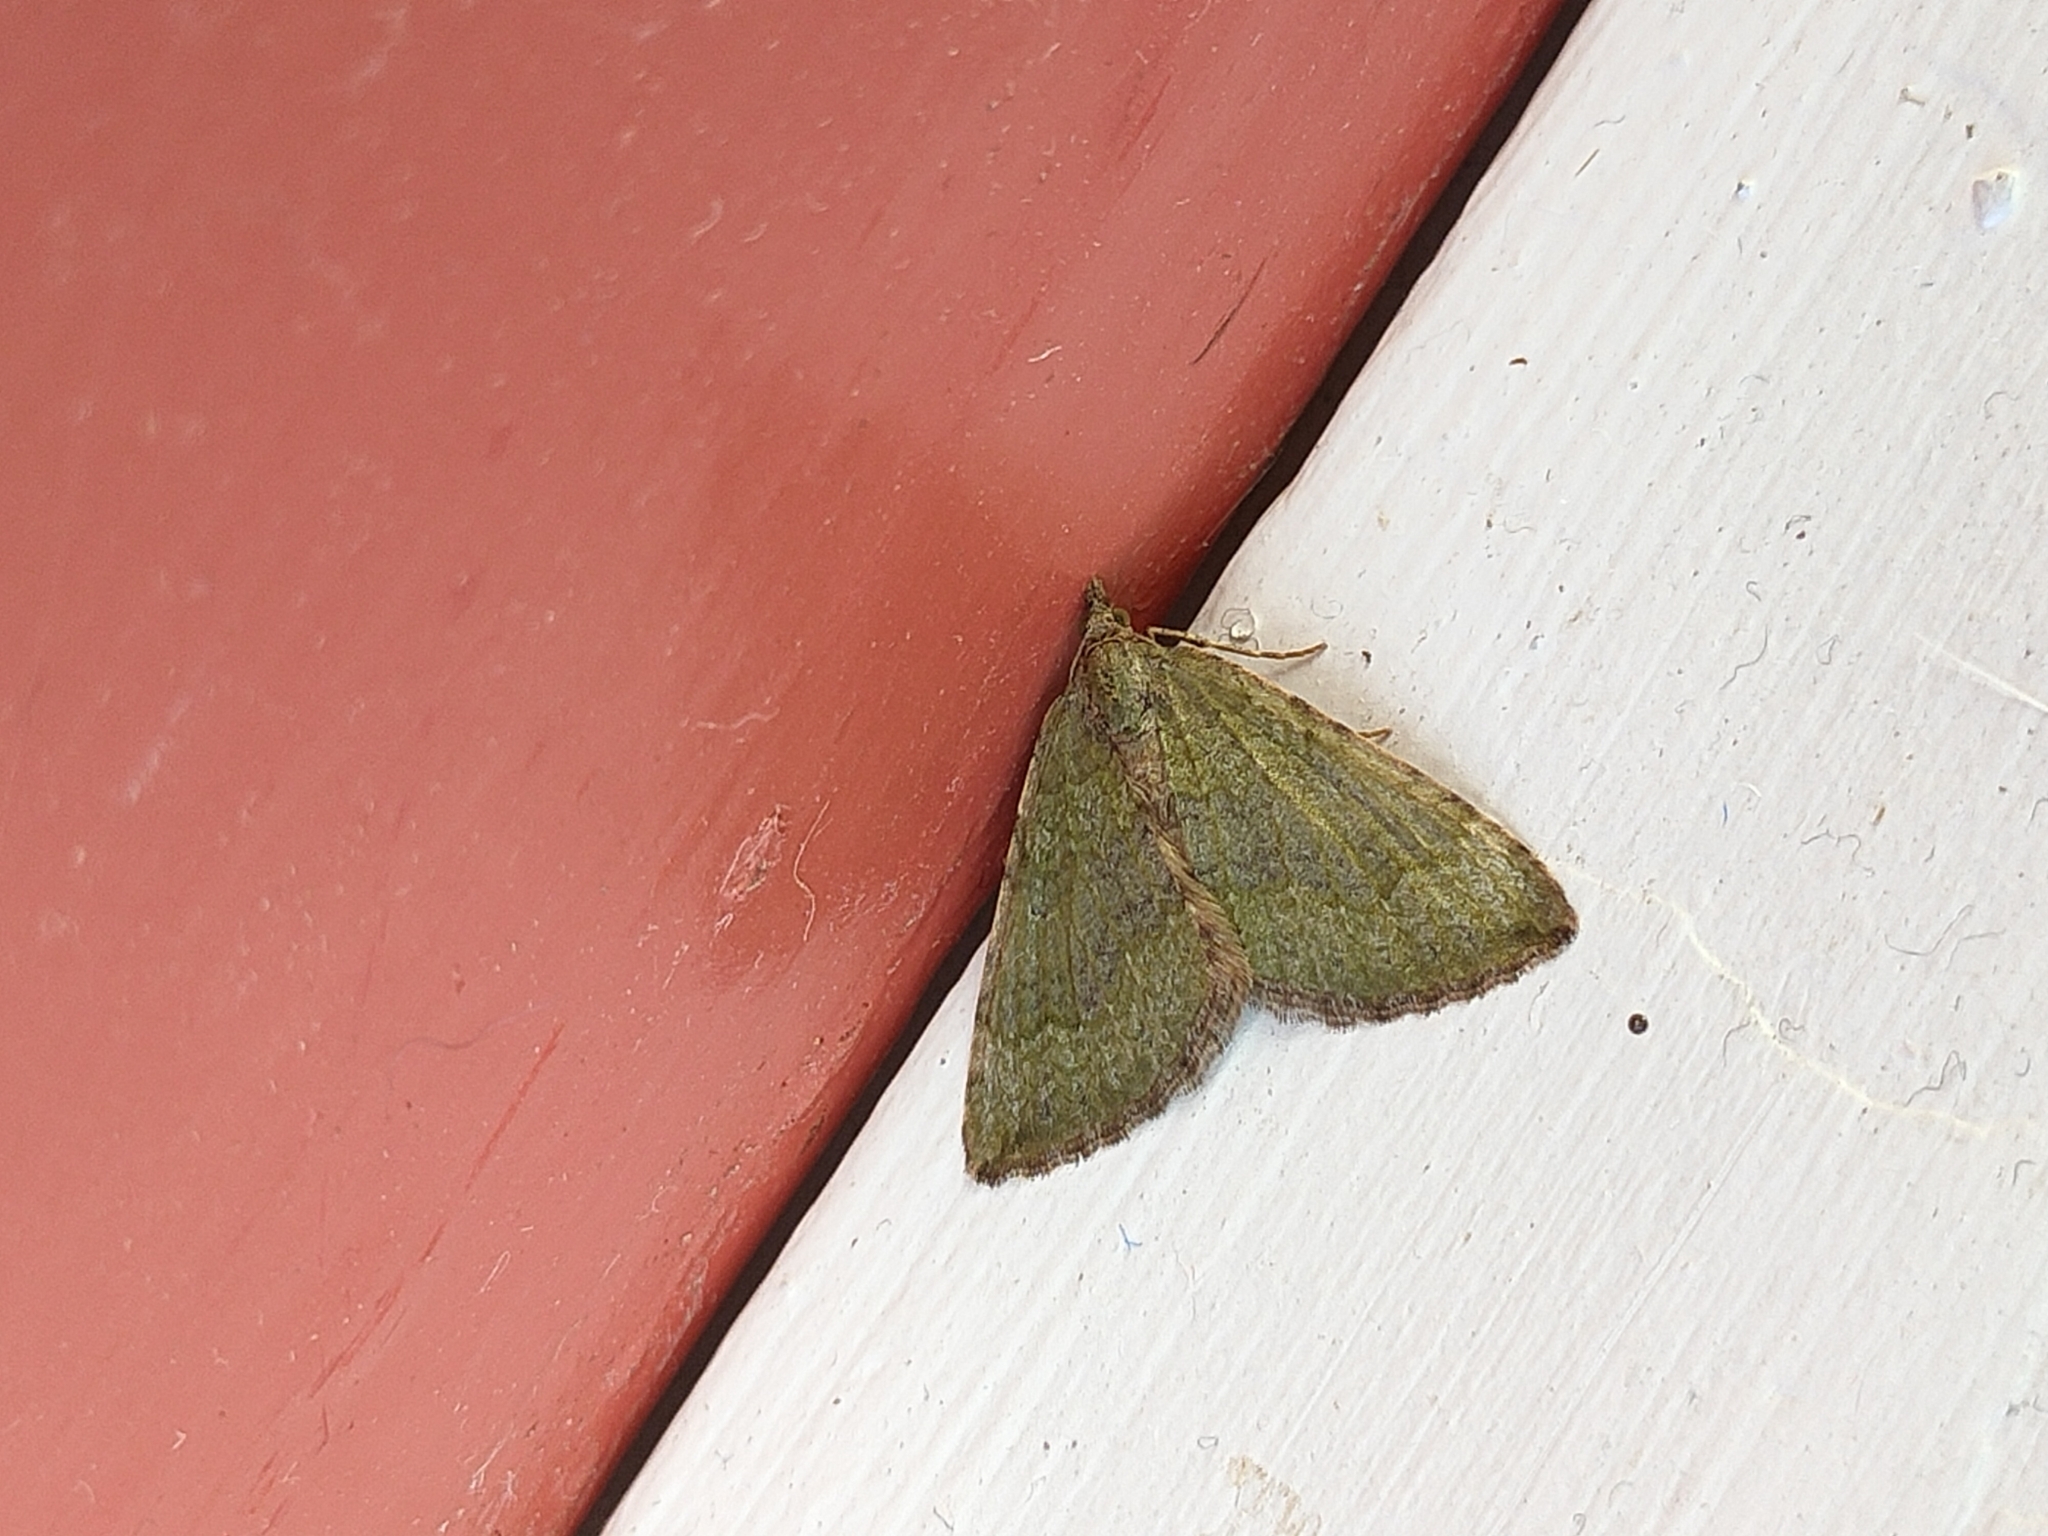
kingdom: Animalia
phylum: Arthropoda
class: Insecta
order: Lepidoptera
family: Geometridae
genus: Epyaxa
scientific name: Epyaxa rosearia
